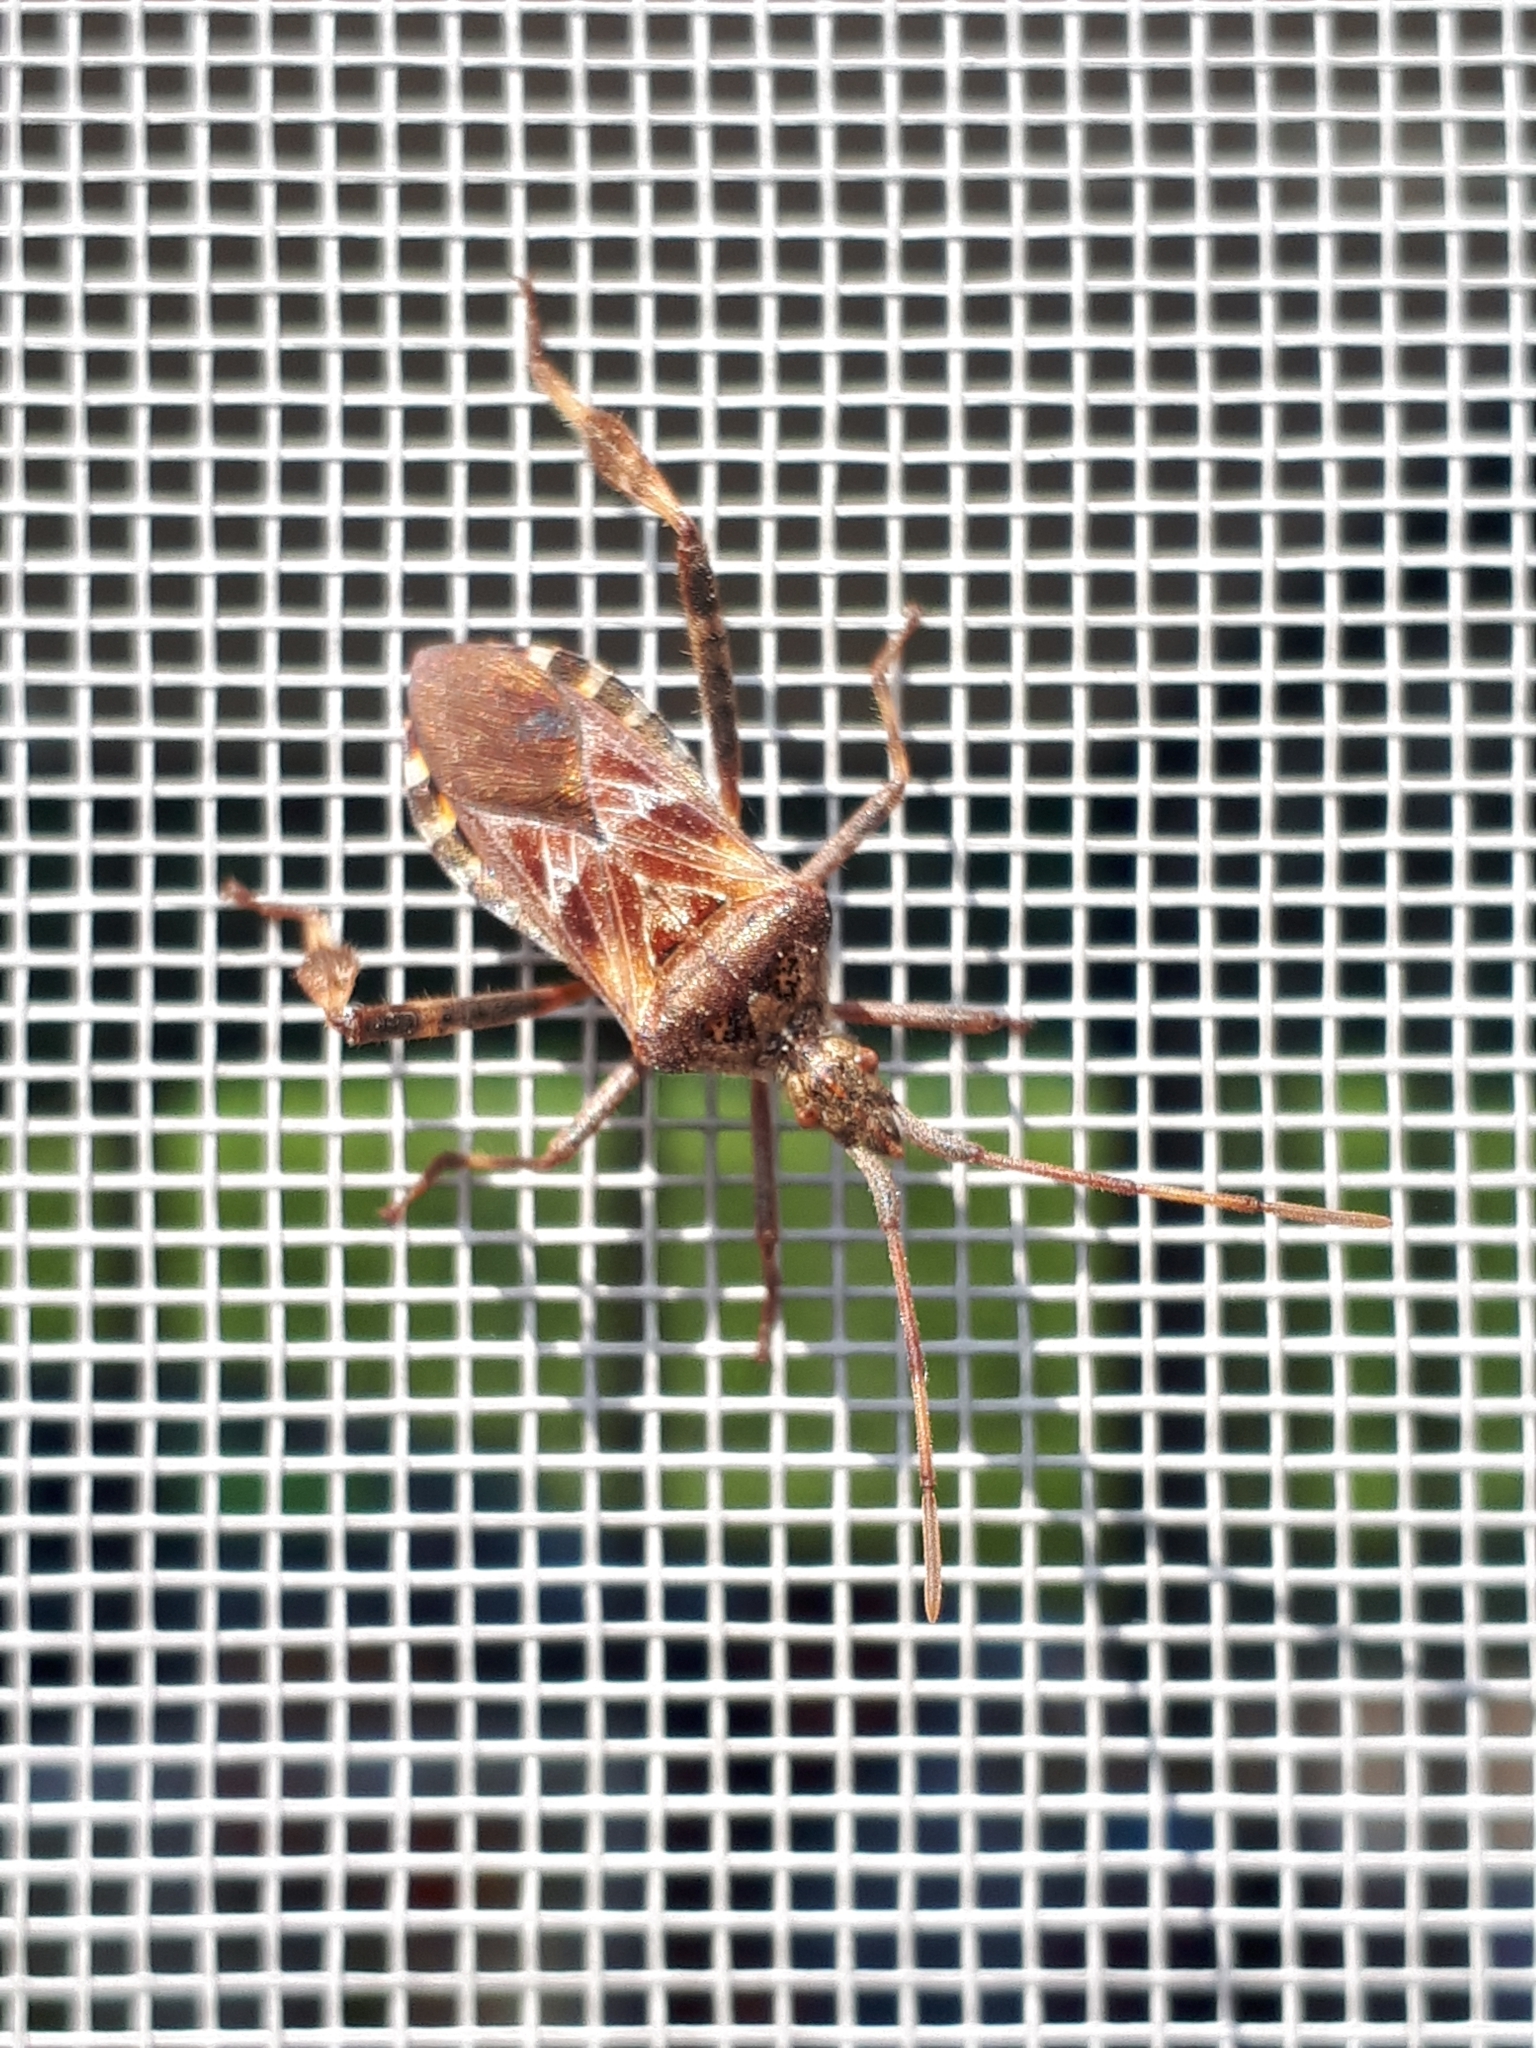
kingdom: Animalia
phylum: Arthropoda
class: Insecta
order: Hemiptera
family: Coreidae
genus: Leptoglossus
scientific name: Leptoglossus occidentalis
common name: Western conifer-seed bug
